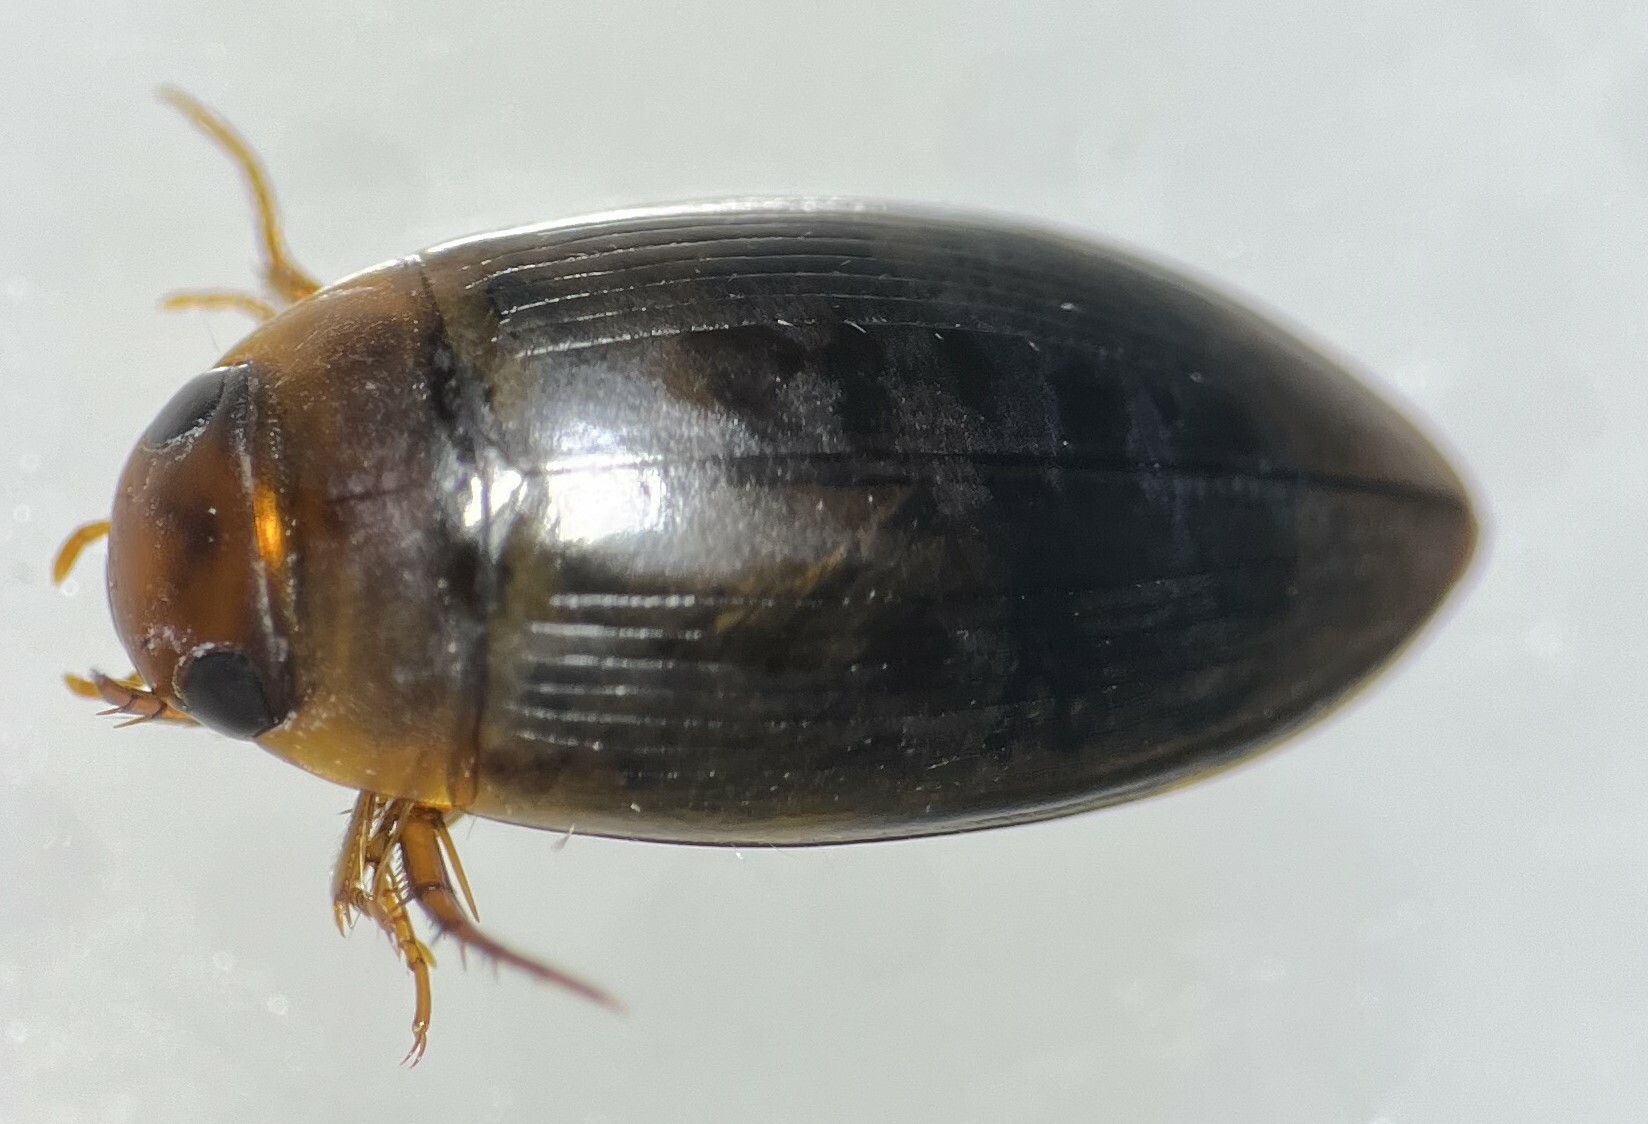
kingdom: Animalia
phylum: Arthropoda
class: Insecta
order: Coleoptera
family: Dytiscidae
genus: Copelatus
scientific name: Copelatus chevrolati
